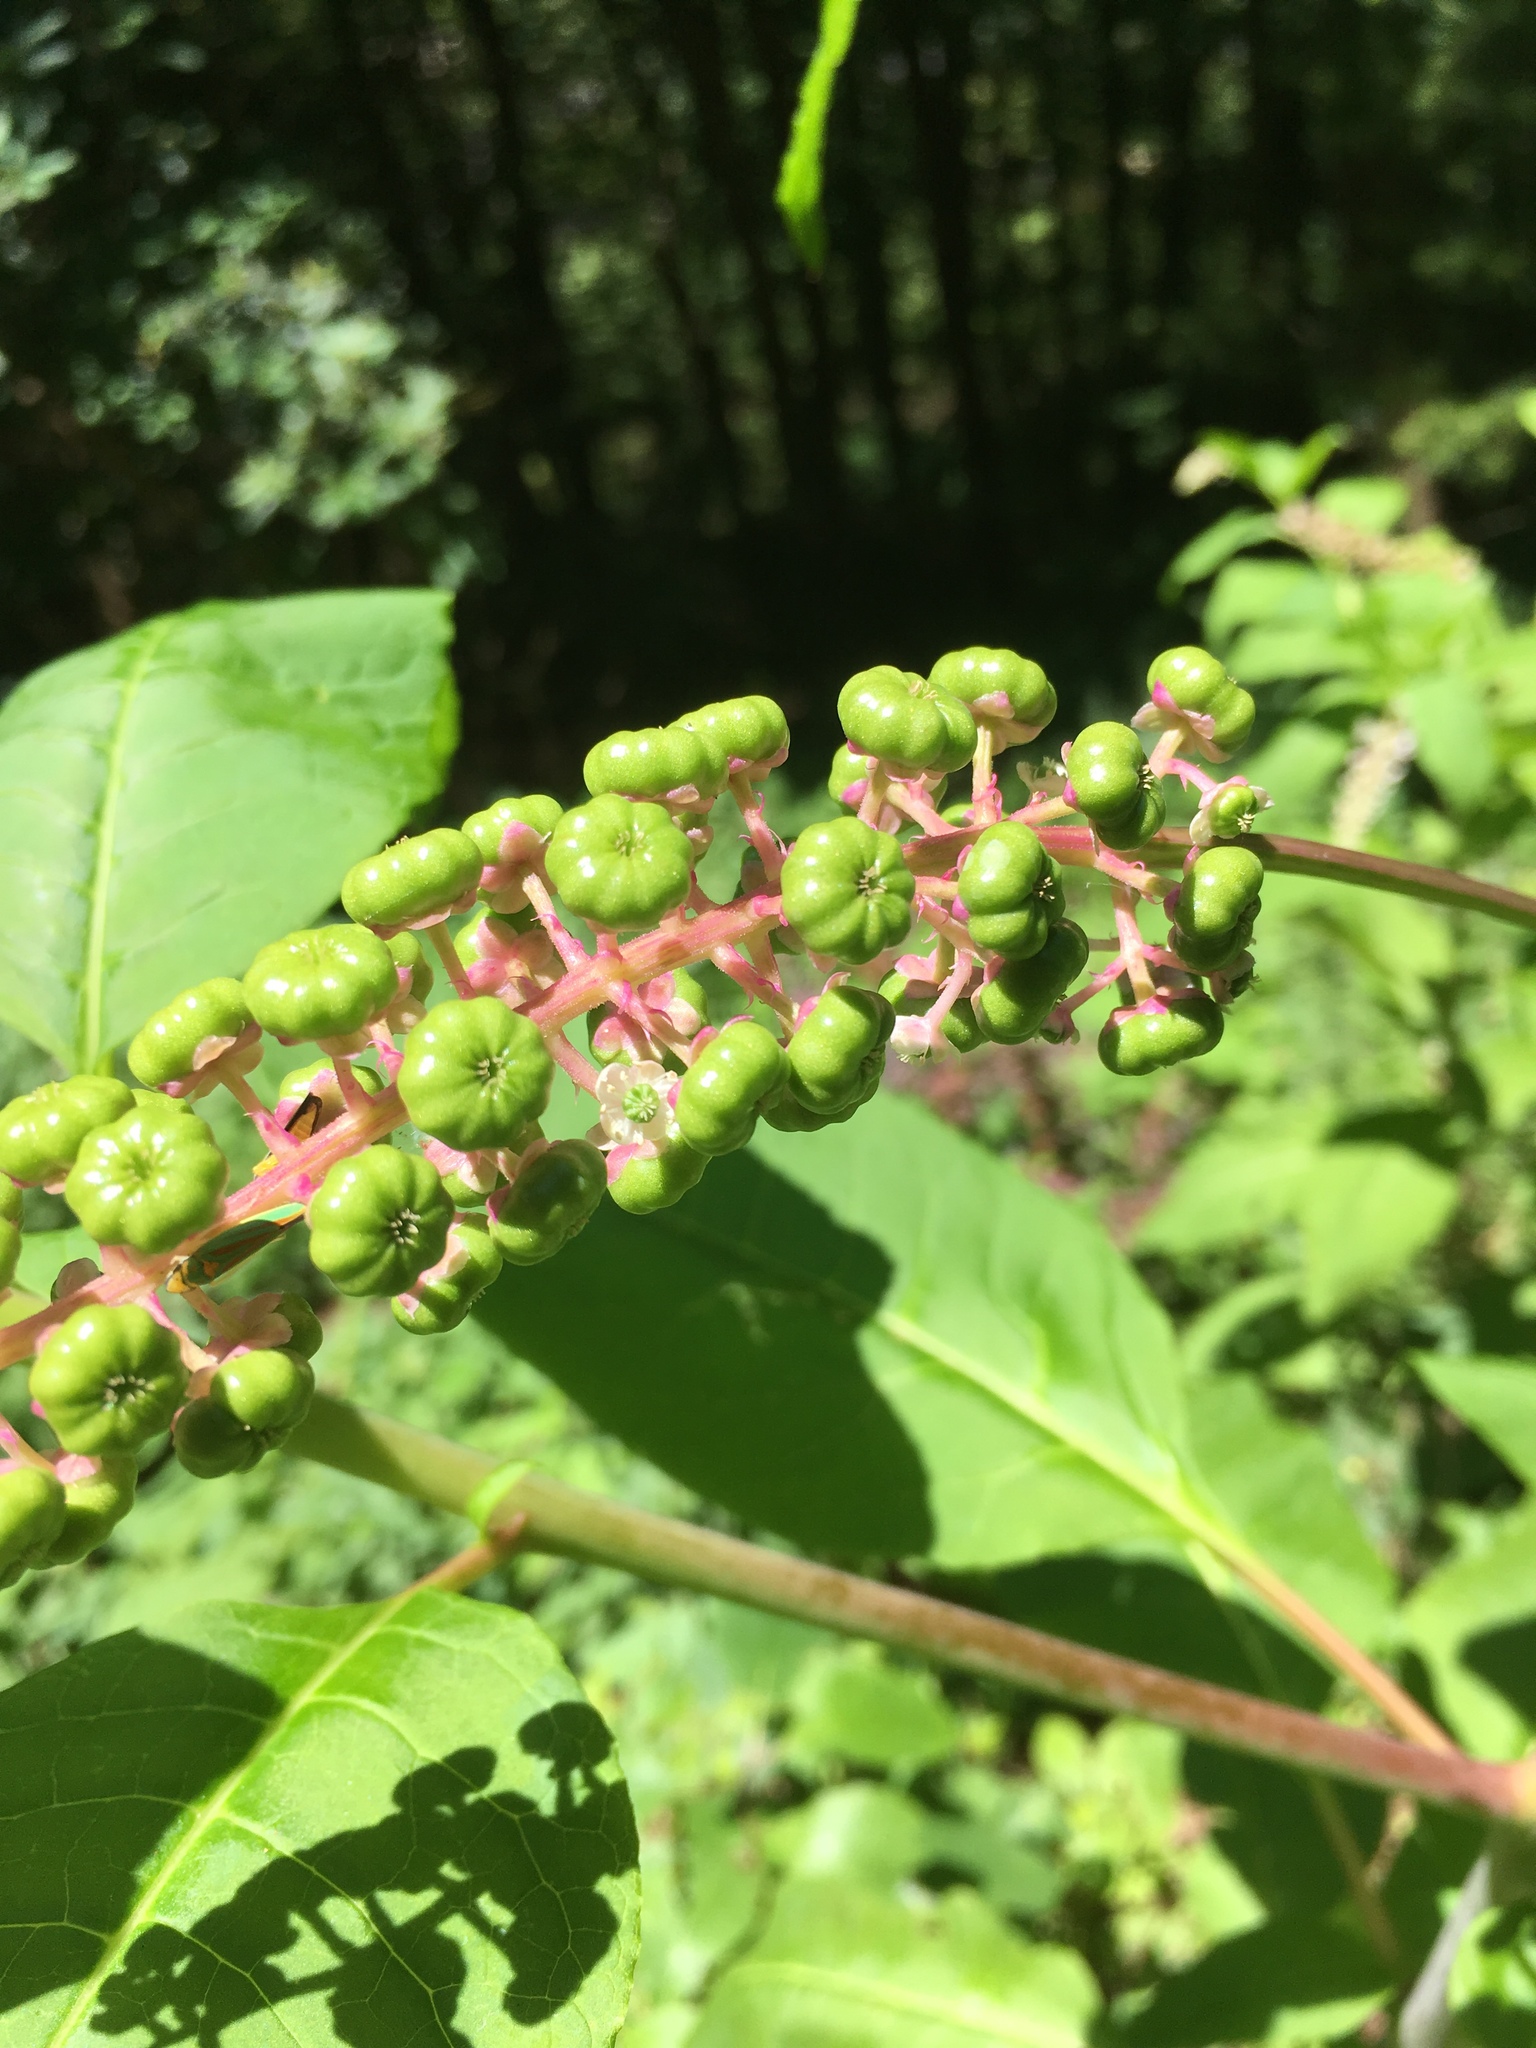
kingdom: Plantae
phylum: Tracheophyta
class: Magnoliopsida
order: Caryophyllales
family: Phytolaccaceae
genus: Phytolacca
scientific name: Phytolacca americana
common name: American pokeweed
